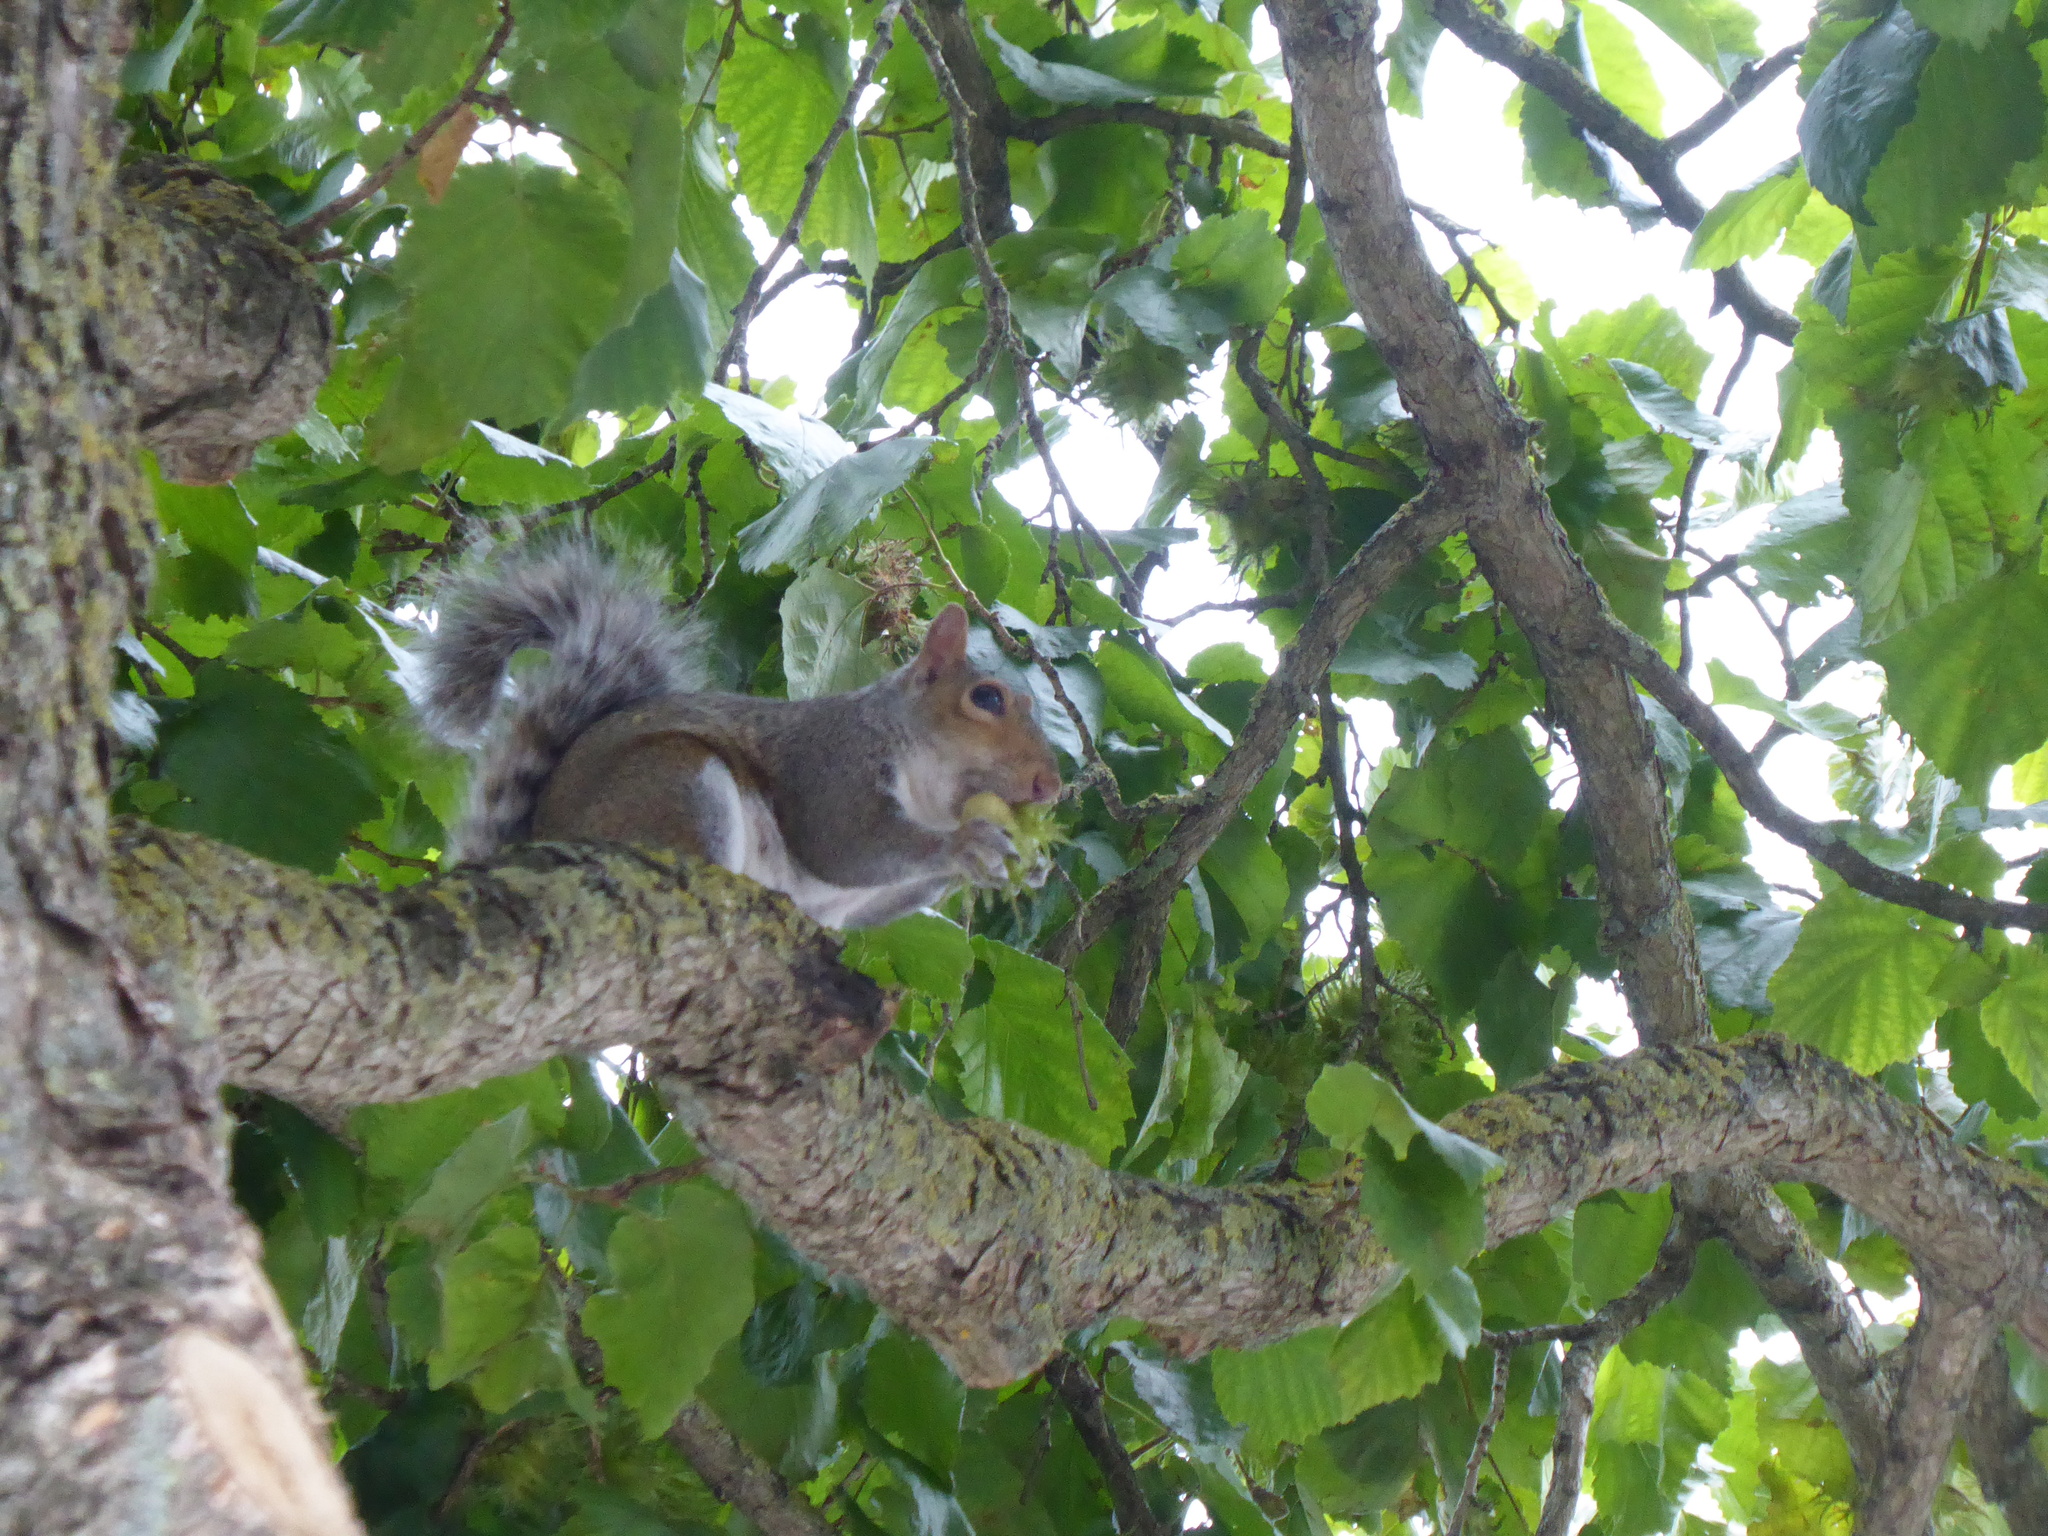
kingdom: Animalia
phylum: Chordata
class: Mammalia
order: Rodentia
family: Sciuridae
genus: Sciurus
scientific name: Sciurus carolinensis
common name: Eastern gray squirrel
